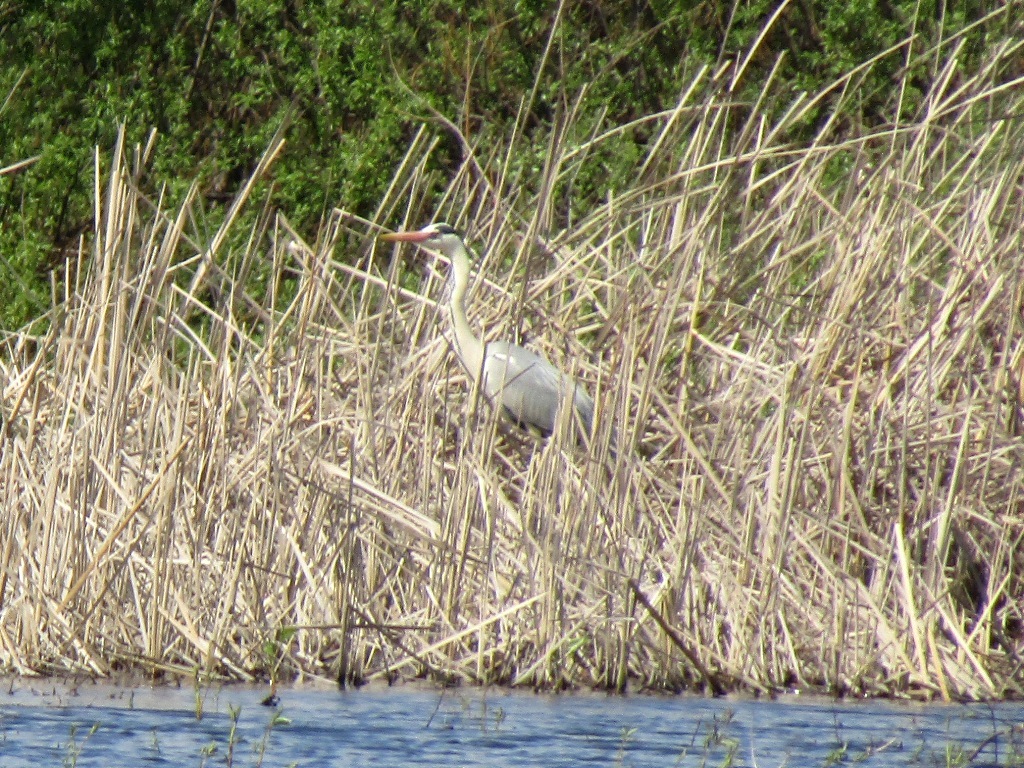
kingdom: Animalia
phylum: Chordata
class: Aves
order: Pelecaniformes
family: Ardeidae
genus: Ardea
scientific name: Ardea cinerea
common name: Grey heron
